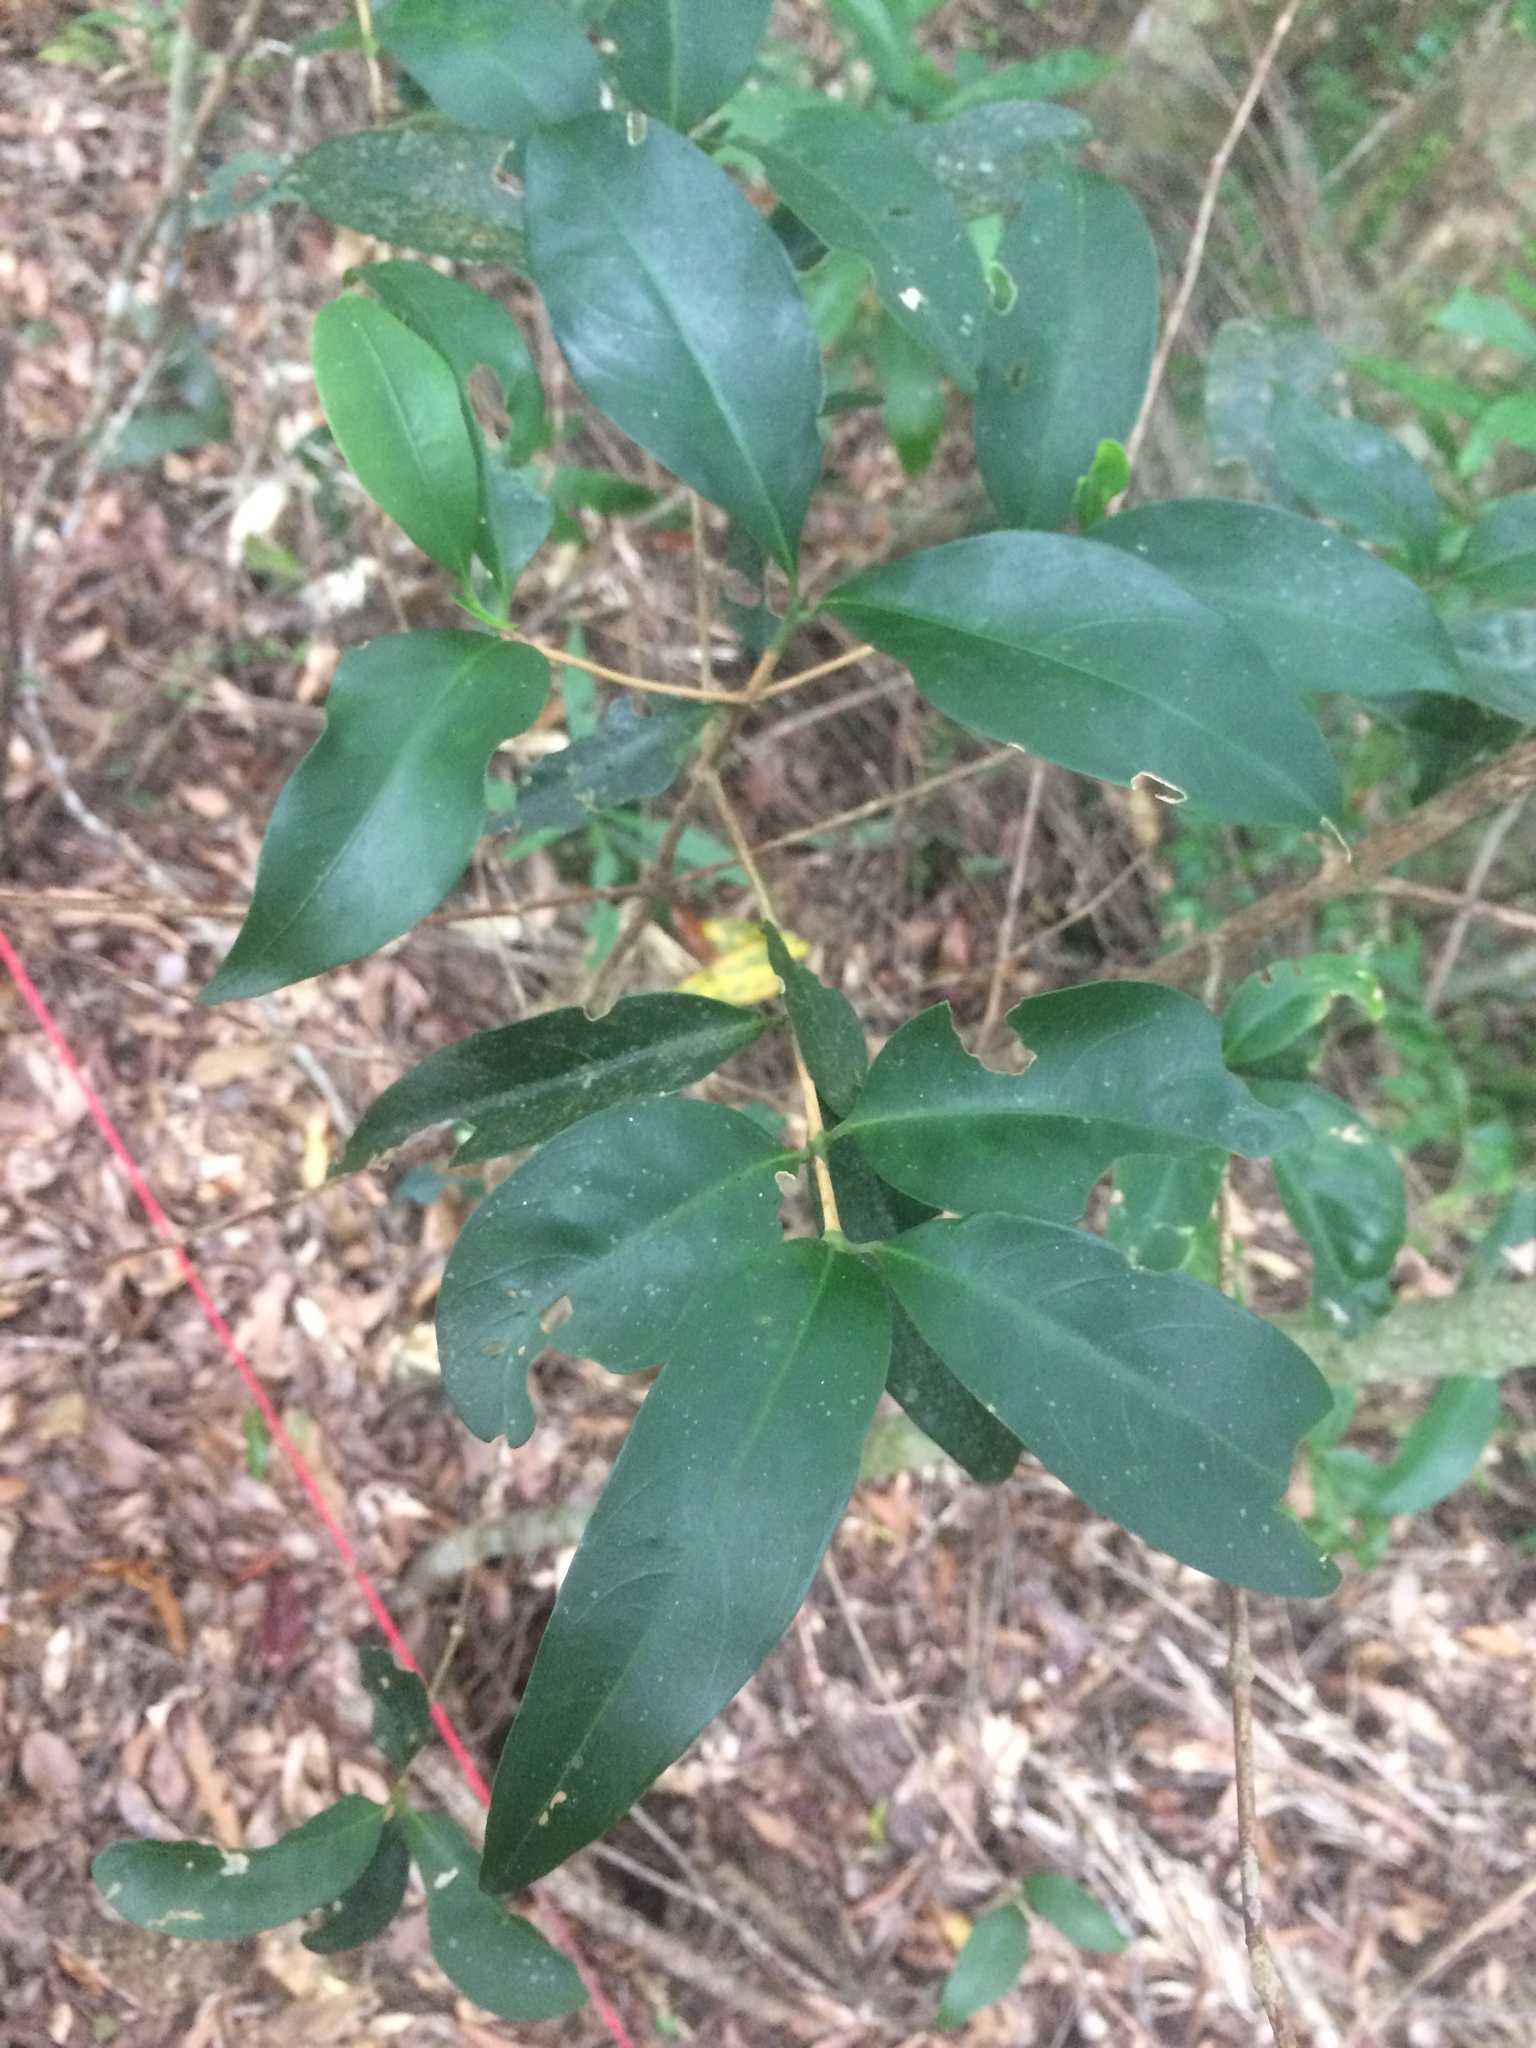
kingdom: Plantae
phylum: Tracheophyta
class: Magnoliopsida
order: Gentianales
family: Rubiaceae
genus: Diplospora
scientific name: Diplospora dubia
